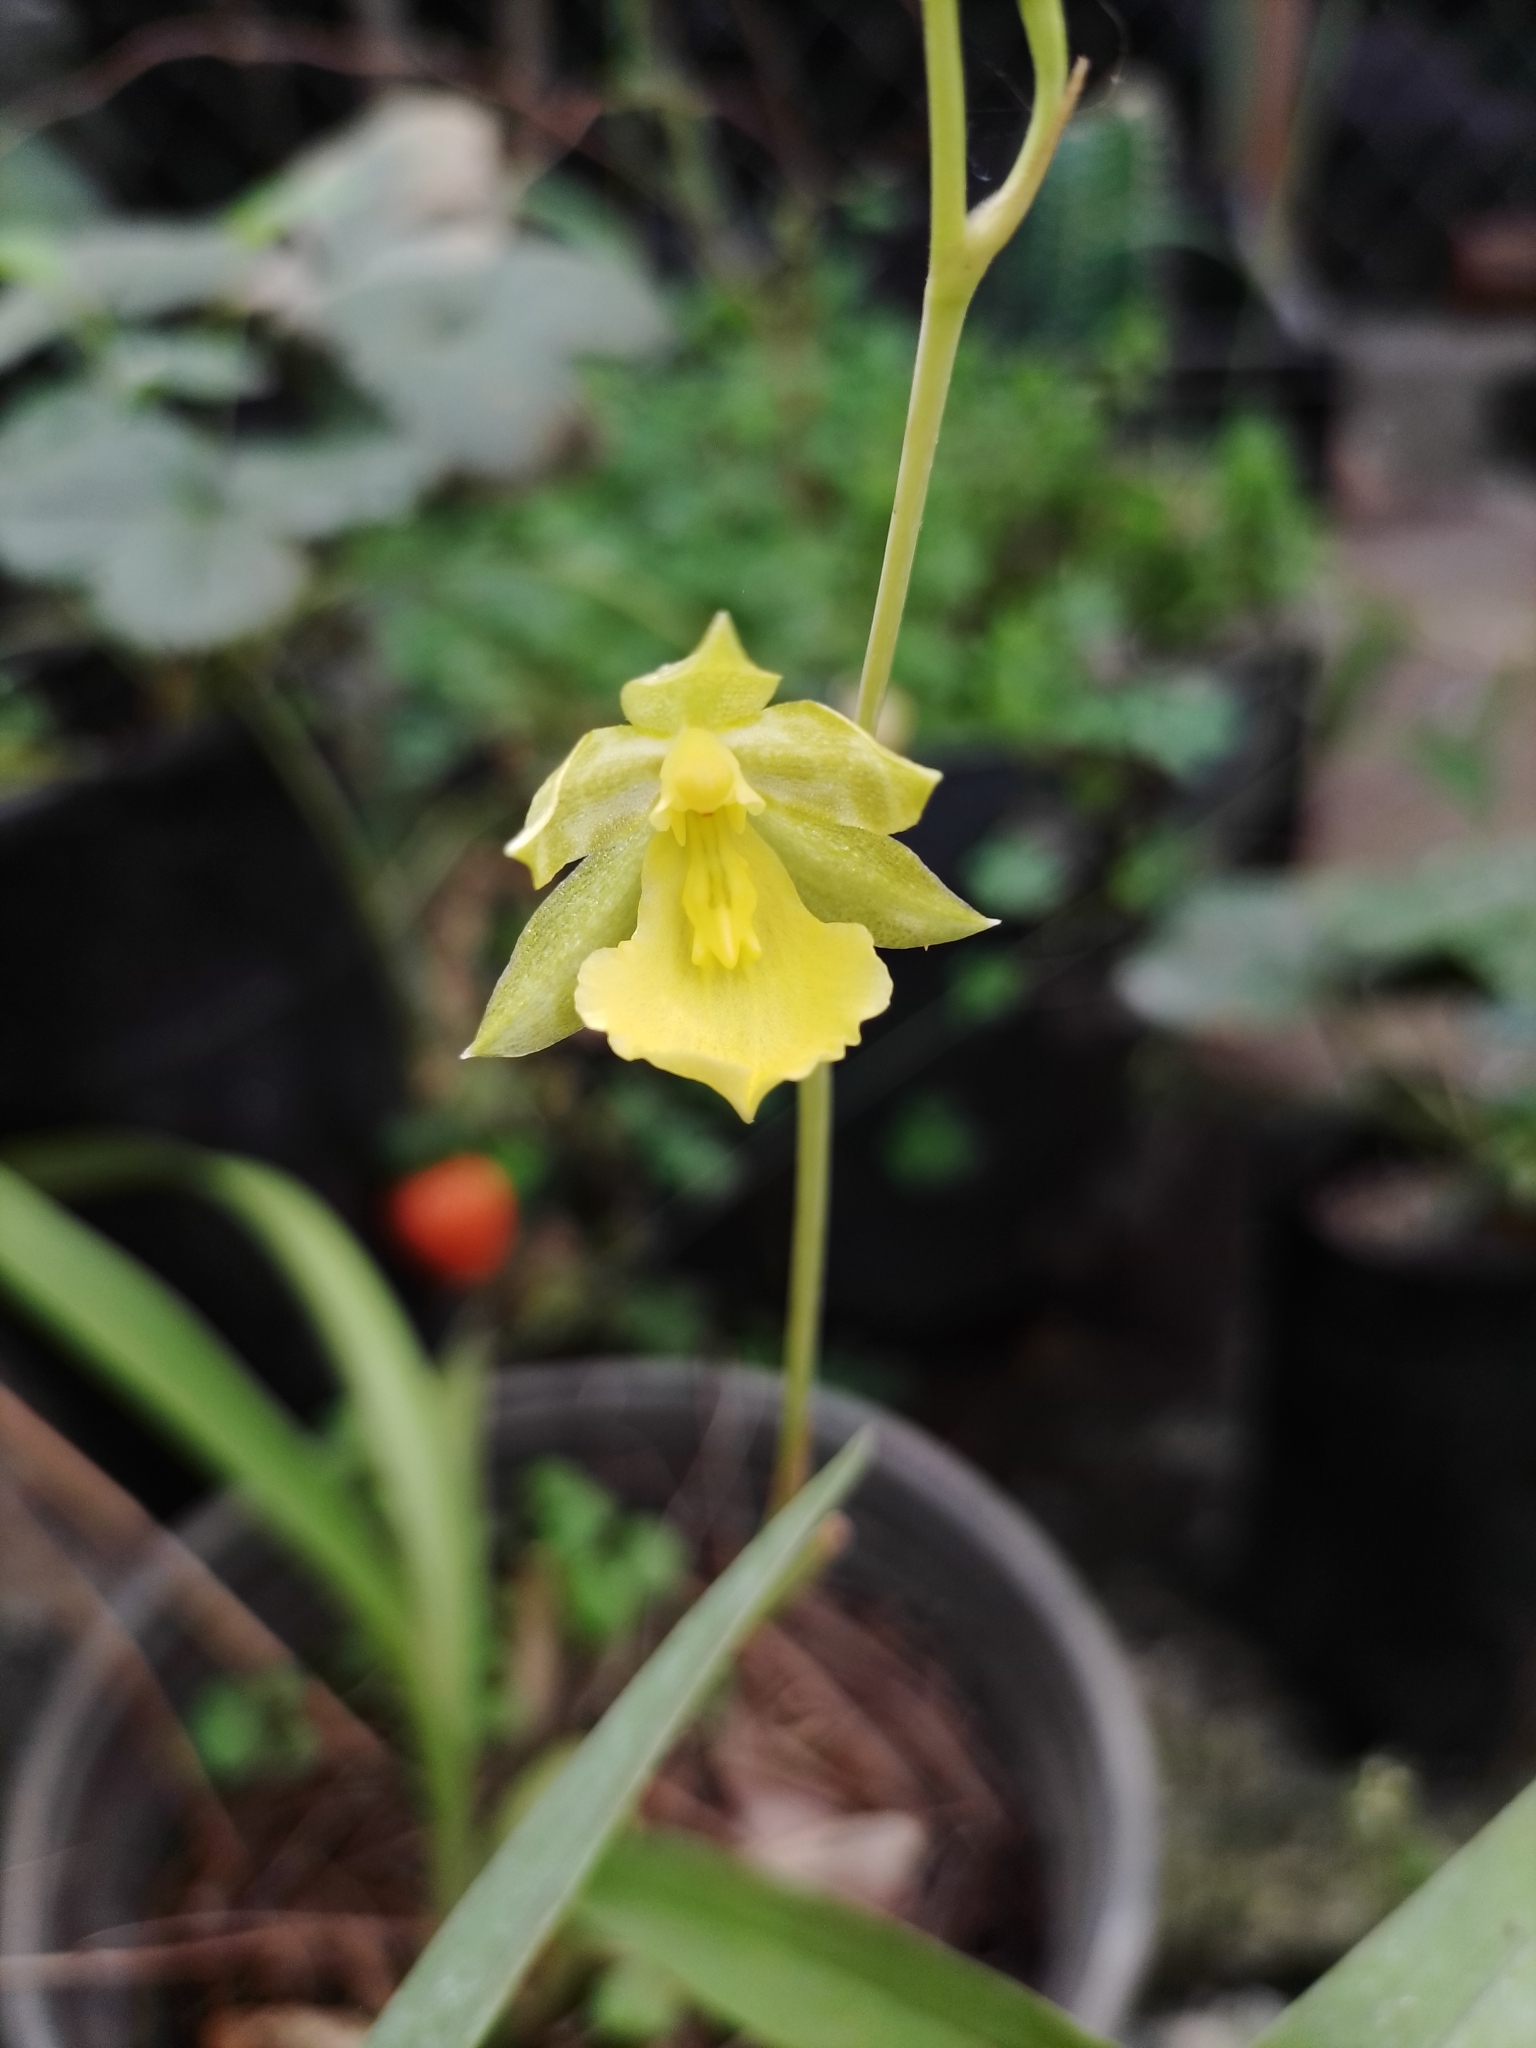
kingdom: Plantae
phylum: Tracheophyta
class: Liliopsida
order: Asparagales
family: Orchidaceae
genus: Oncidium
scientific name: Oncidium graminifolium
